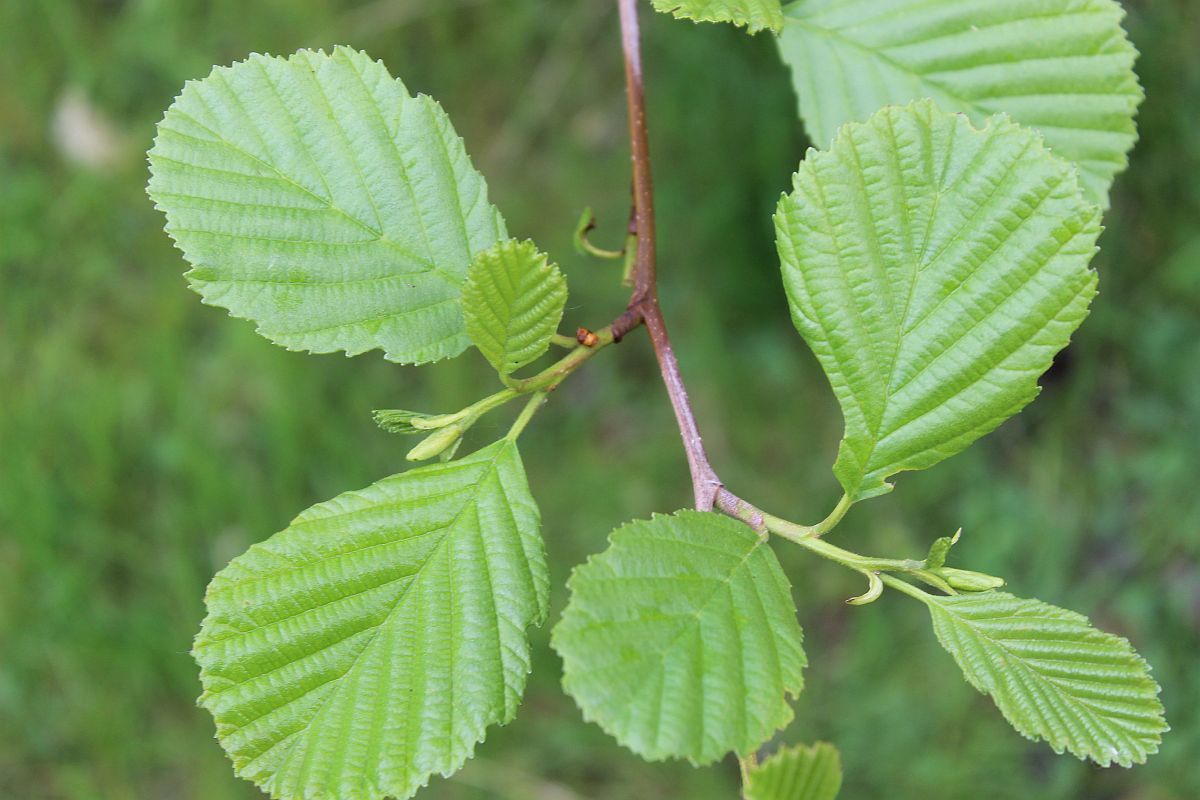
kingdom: Plantae
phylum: Tracheophyta
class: Magnoliopsida
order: Fagales
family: Betulaceae
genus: Alnus
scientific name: Alnus glutinosa
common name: Black alder
